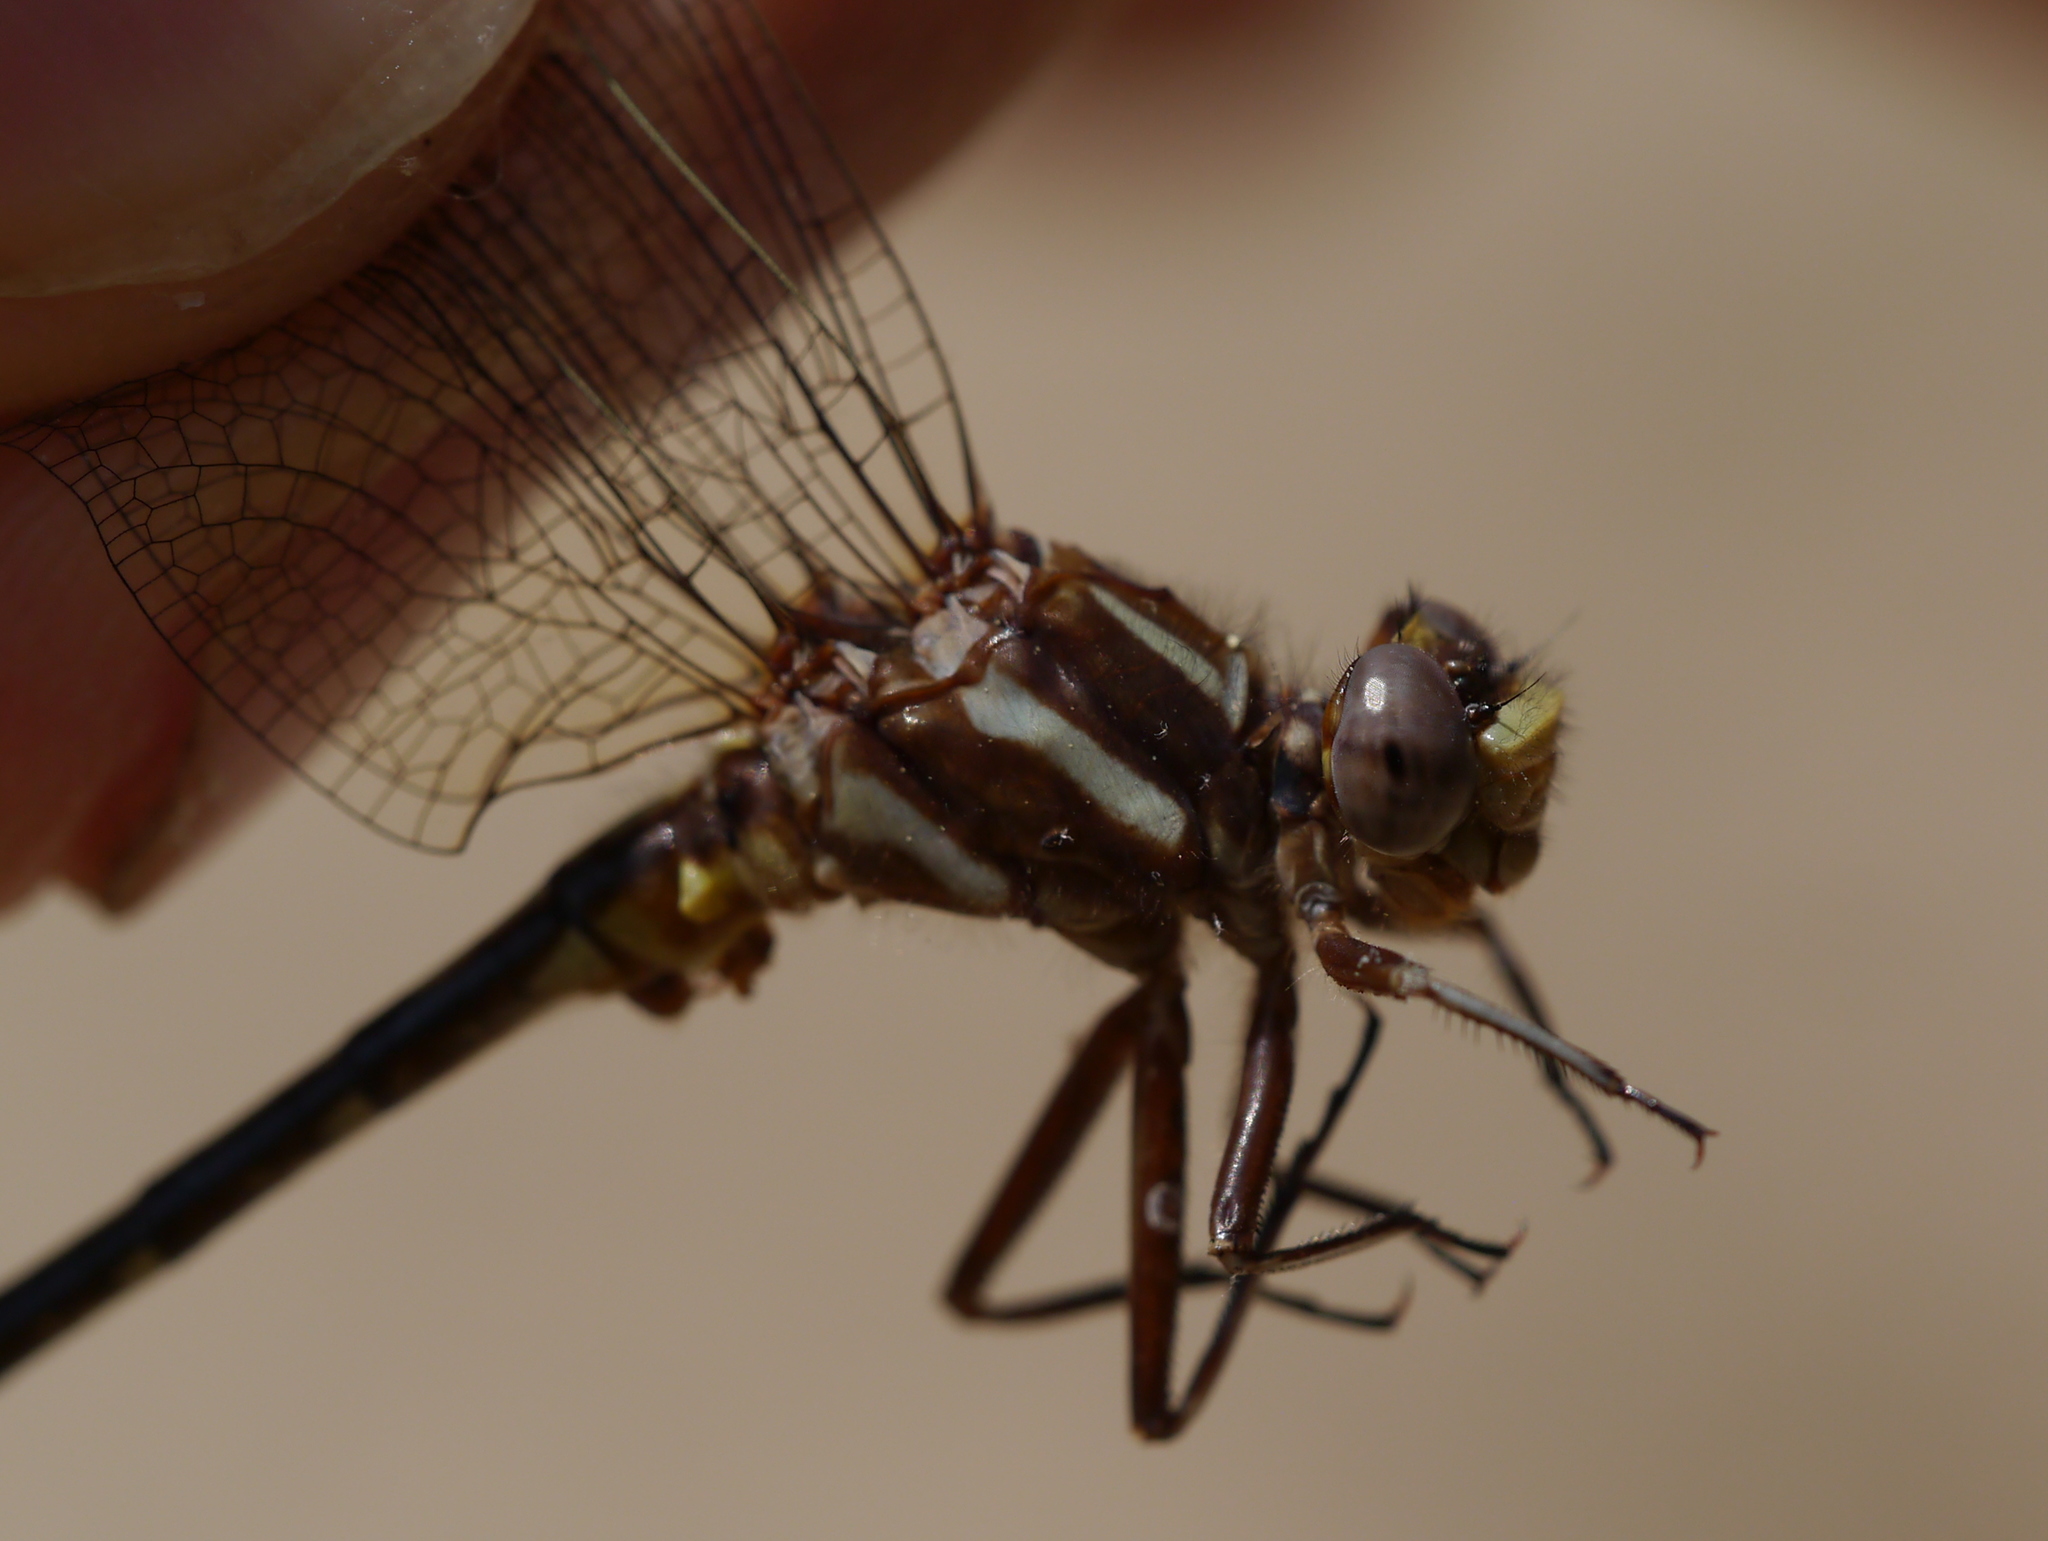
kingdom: Animalia
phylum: Arthropoda
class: Insecta
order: Odonata
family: Gomphidae
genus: Phanogomphus
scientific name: Phanogomphus exilis
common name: Lancet clubtail
